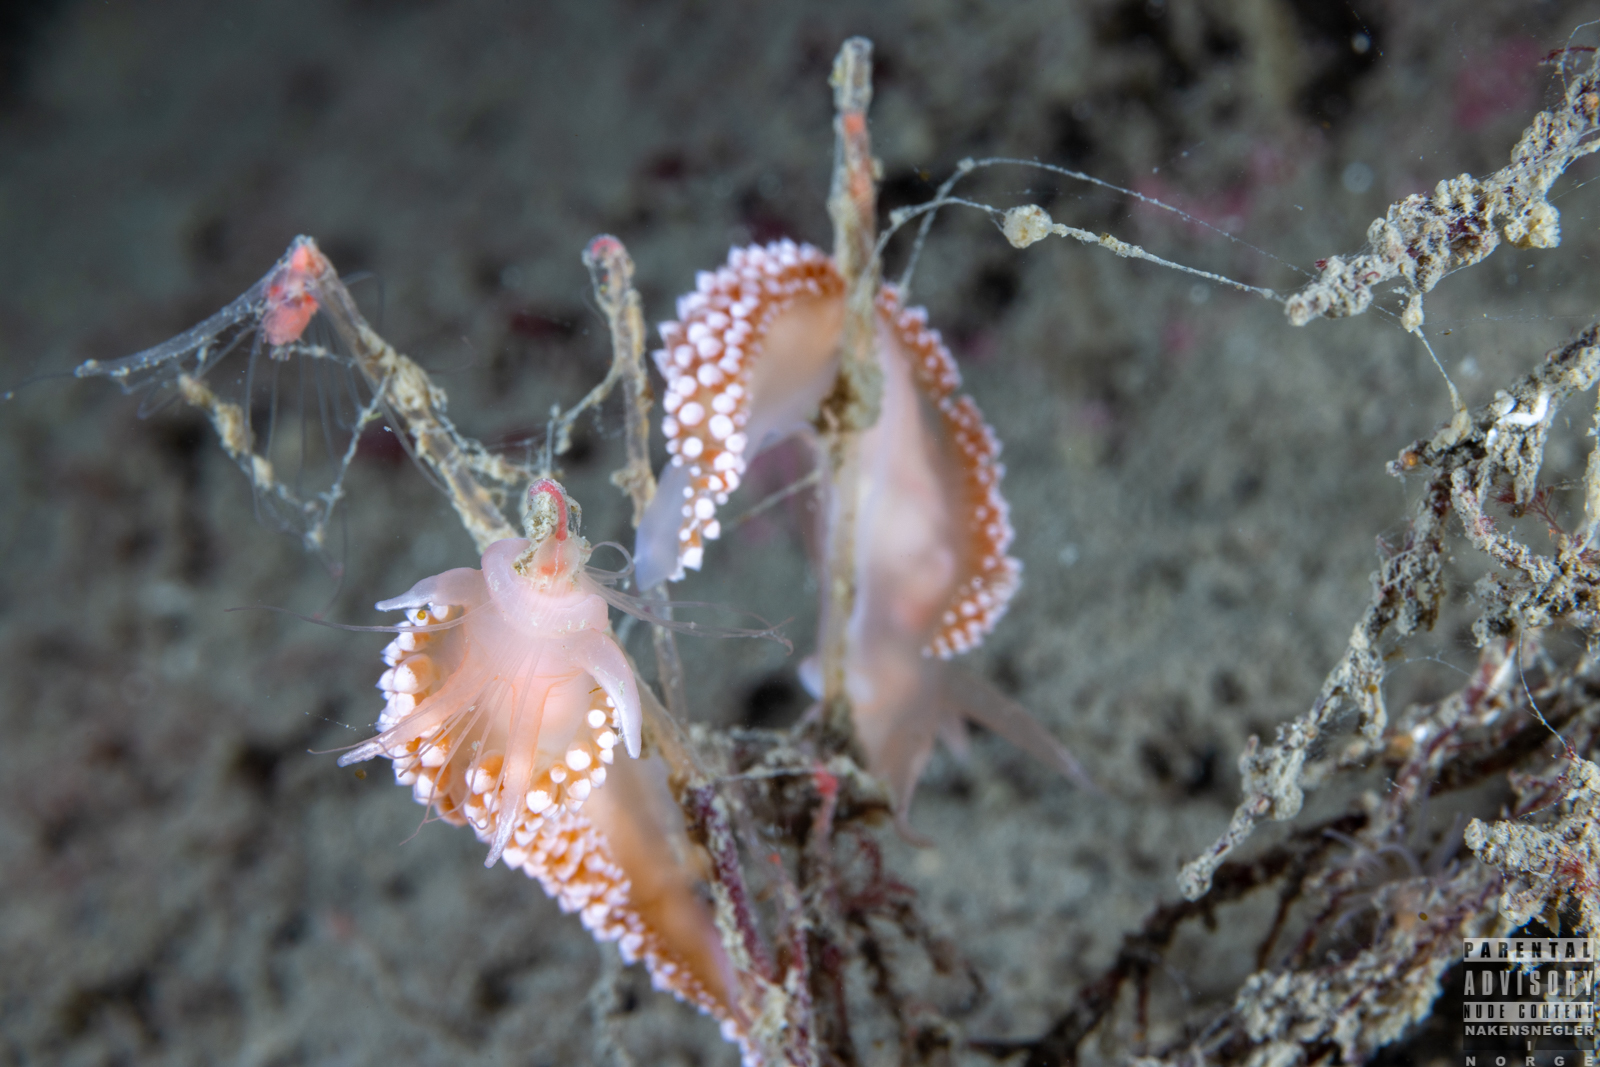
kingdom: Animalia
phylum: Mollusca
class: Gastropoda
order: Nudibranchia
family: Coryphellidae
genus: Coryphella
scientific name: Coryphella verrucosa
